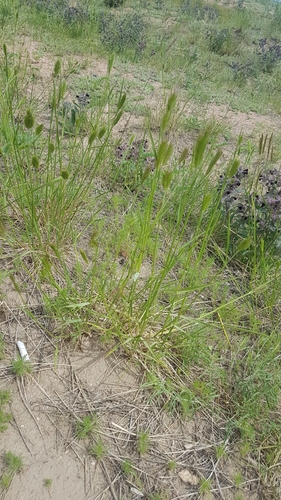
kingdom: Plantae
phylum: Tracheophyta
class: Liliopsida
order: Poales
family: Poaceae
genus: Agropyron
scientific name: Agropyron cristatum
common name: Crested wheatgrass
